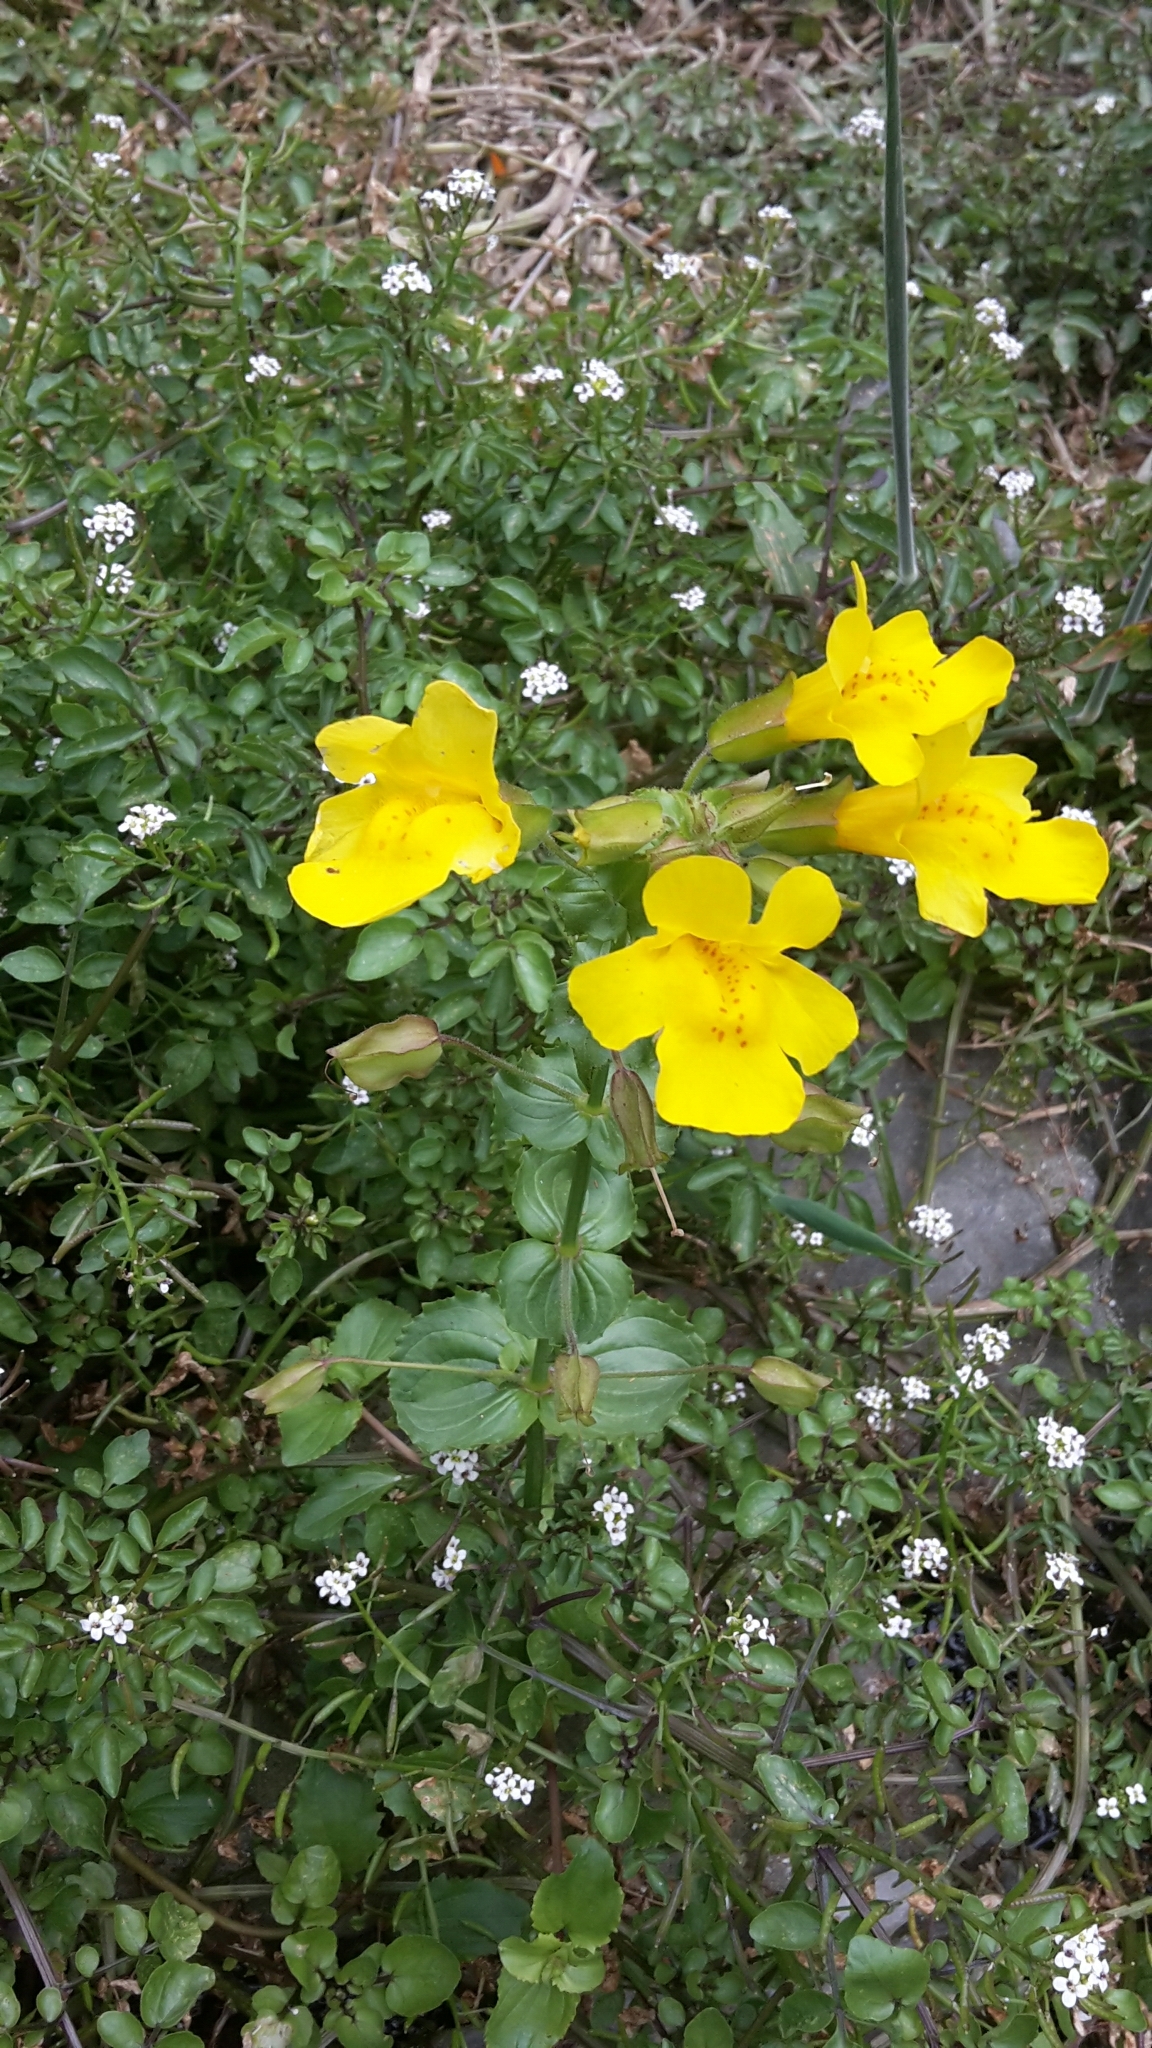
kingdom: Plantae
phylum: Tracheophyta
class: Magnoliopsida
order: Lamiales
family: Phrymaceae
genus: Erythranthe
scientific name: Erythranthe guttata
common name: Monkeyflower
